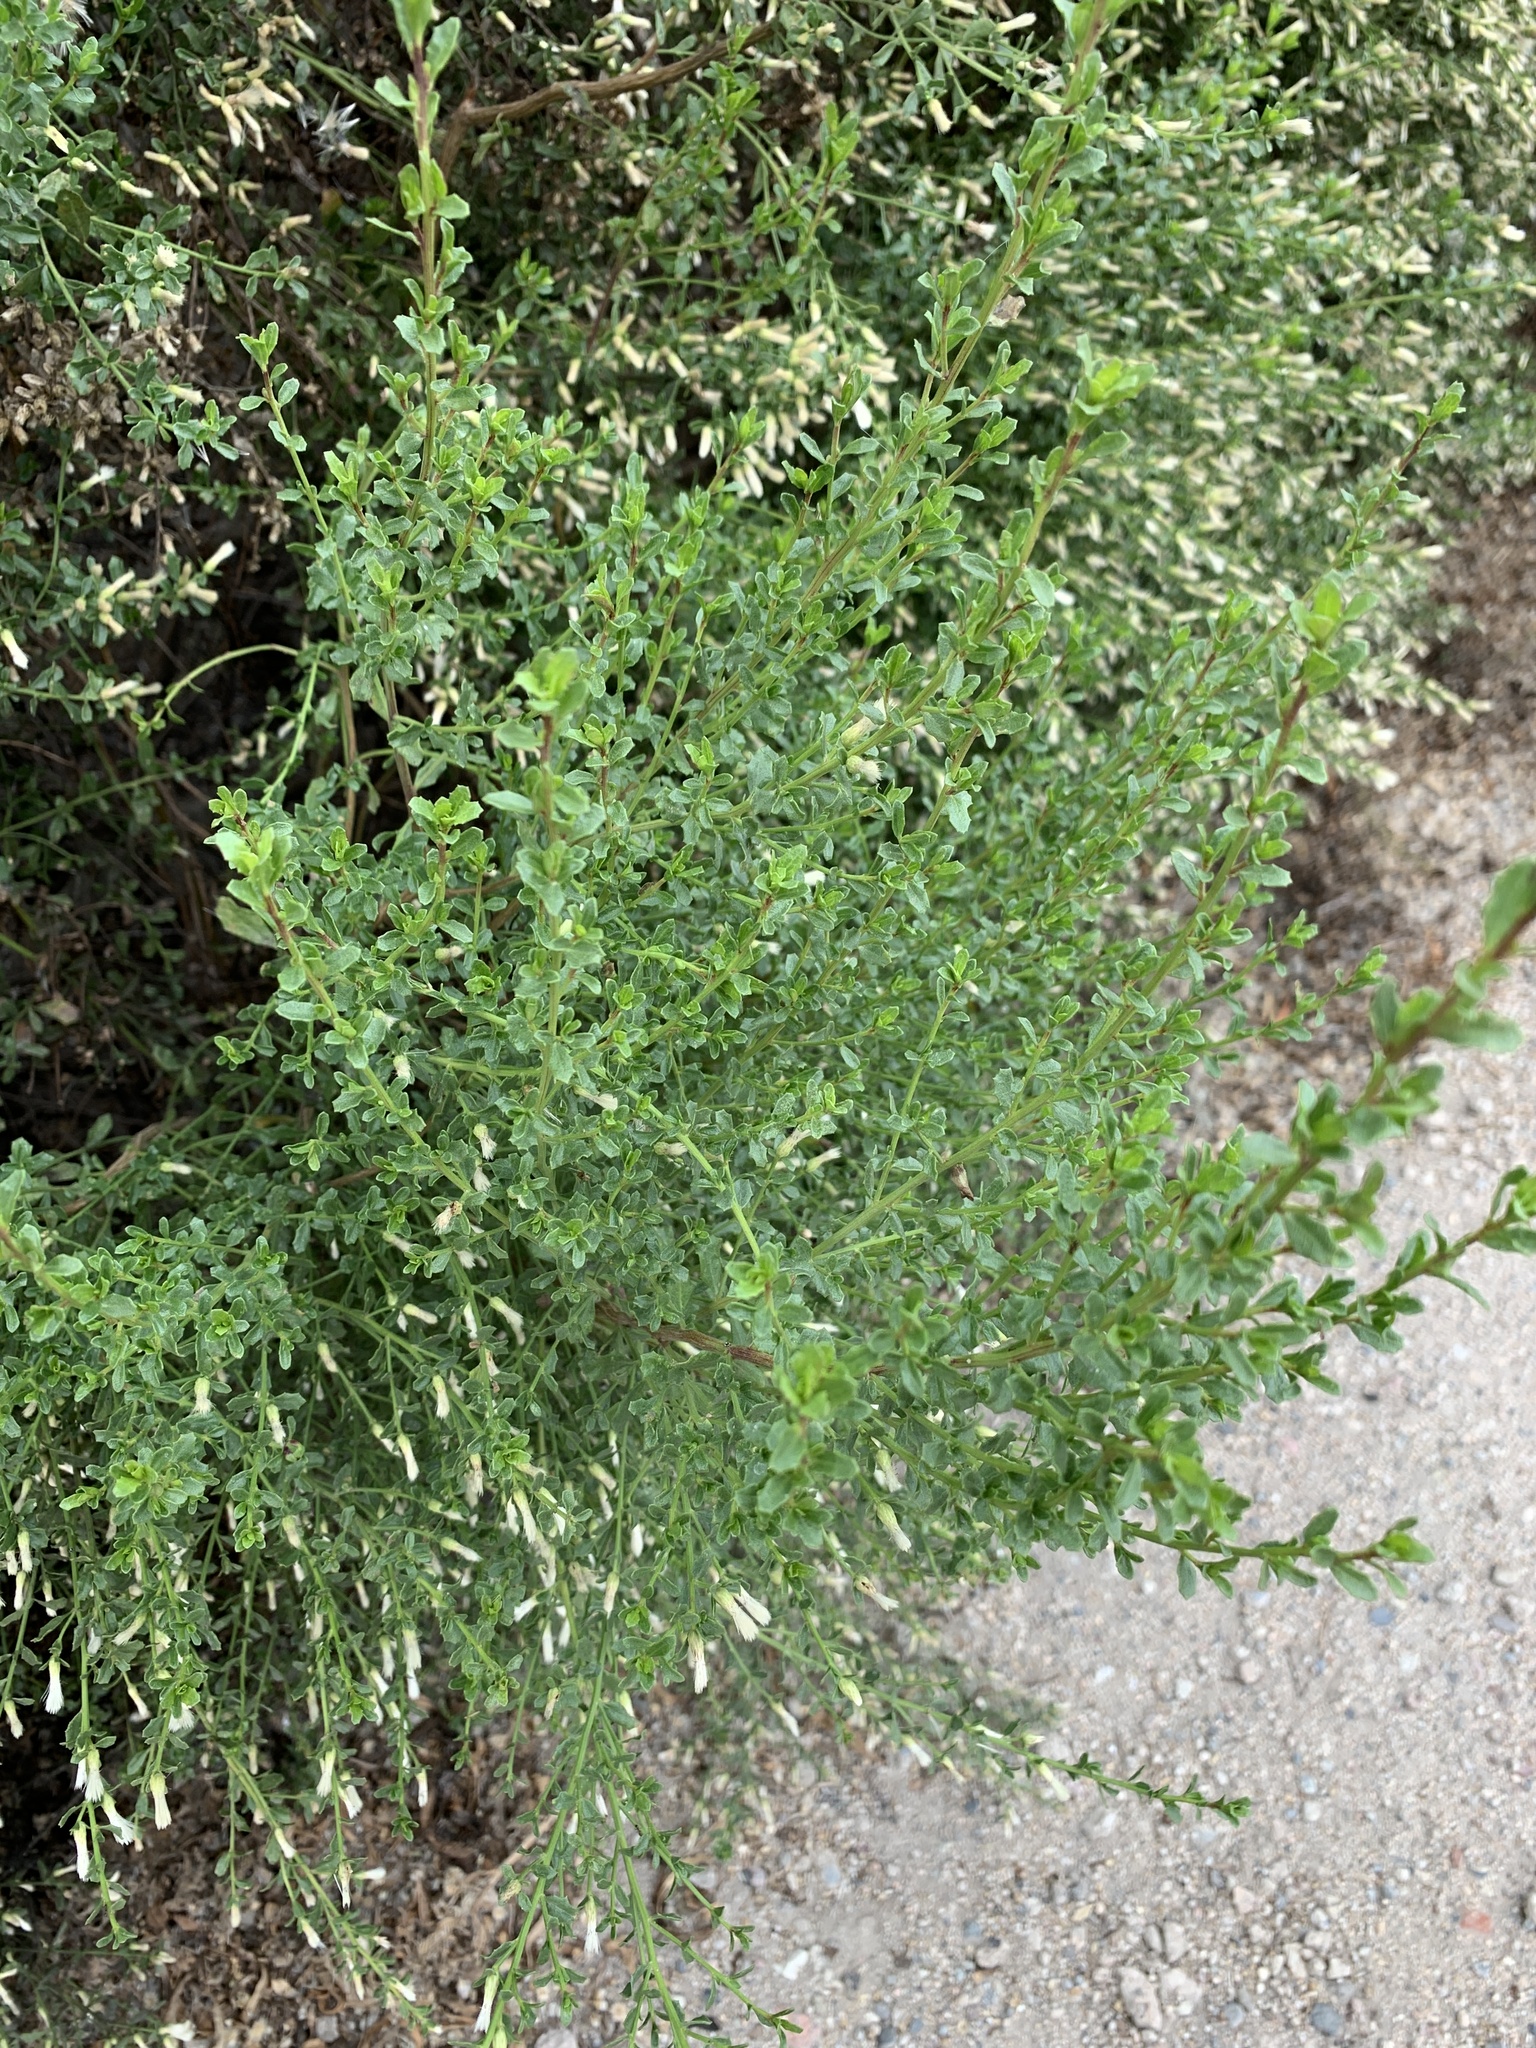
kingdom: Plantae
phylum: Tracheophyta
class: Magnoliopsida
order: Asterales
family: Asteraceae
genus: Baccharis
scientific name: Baccharis pilularis
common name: Coyotebrush
